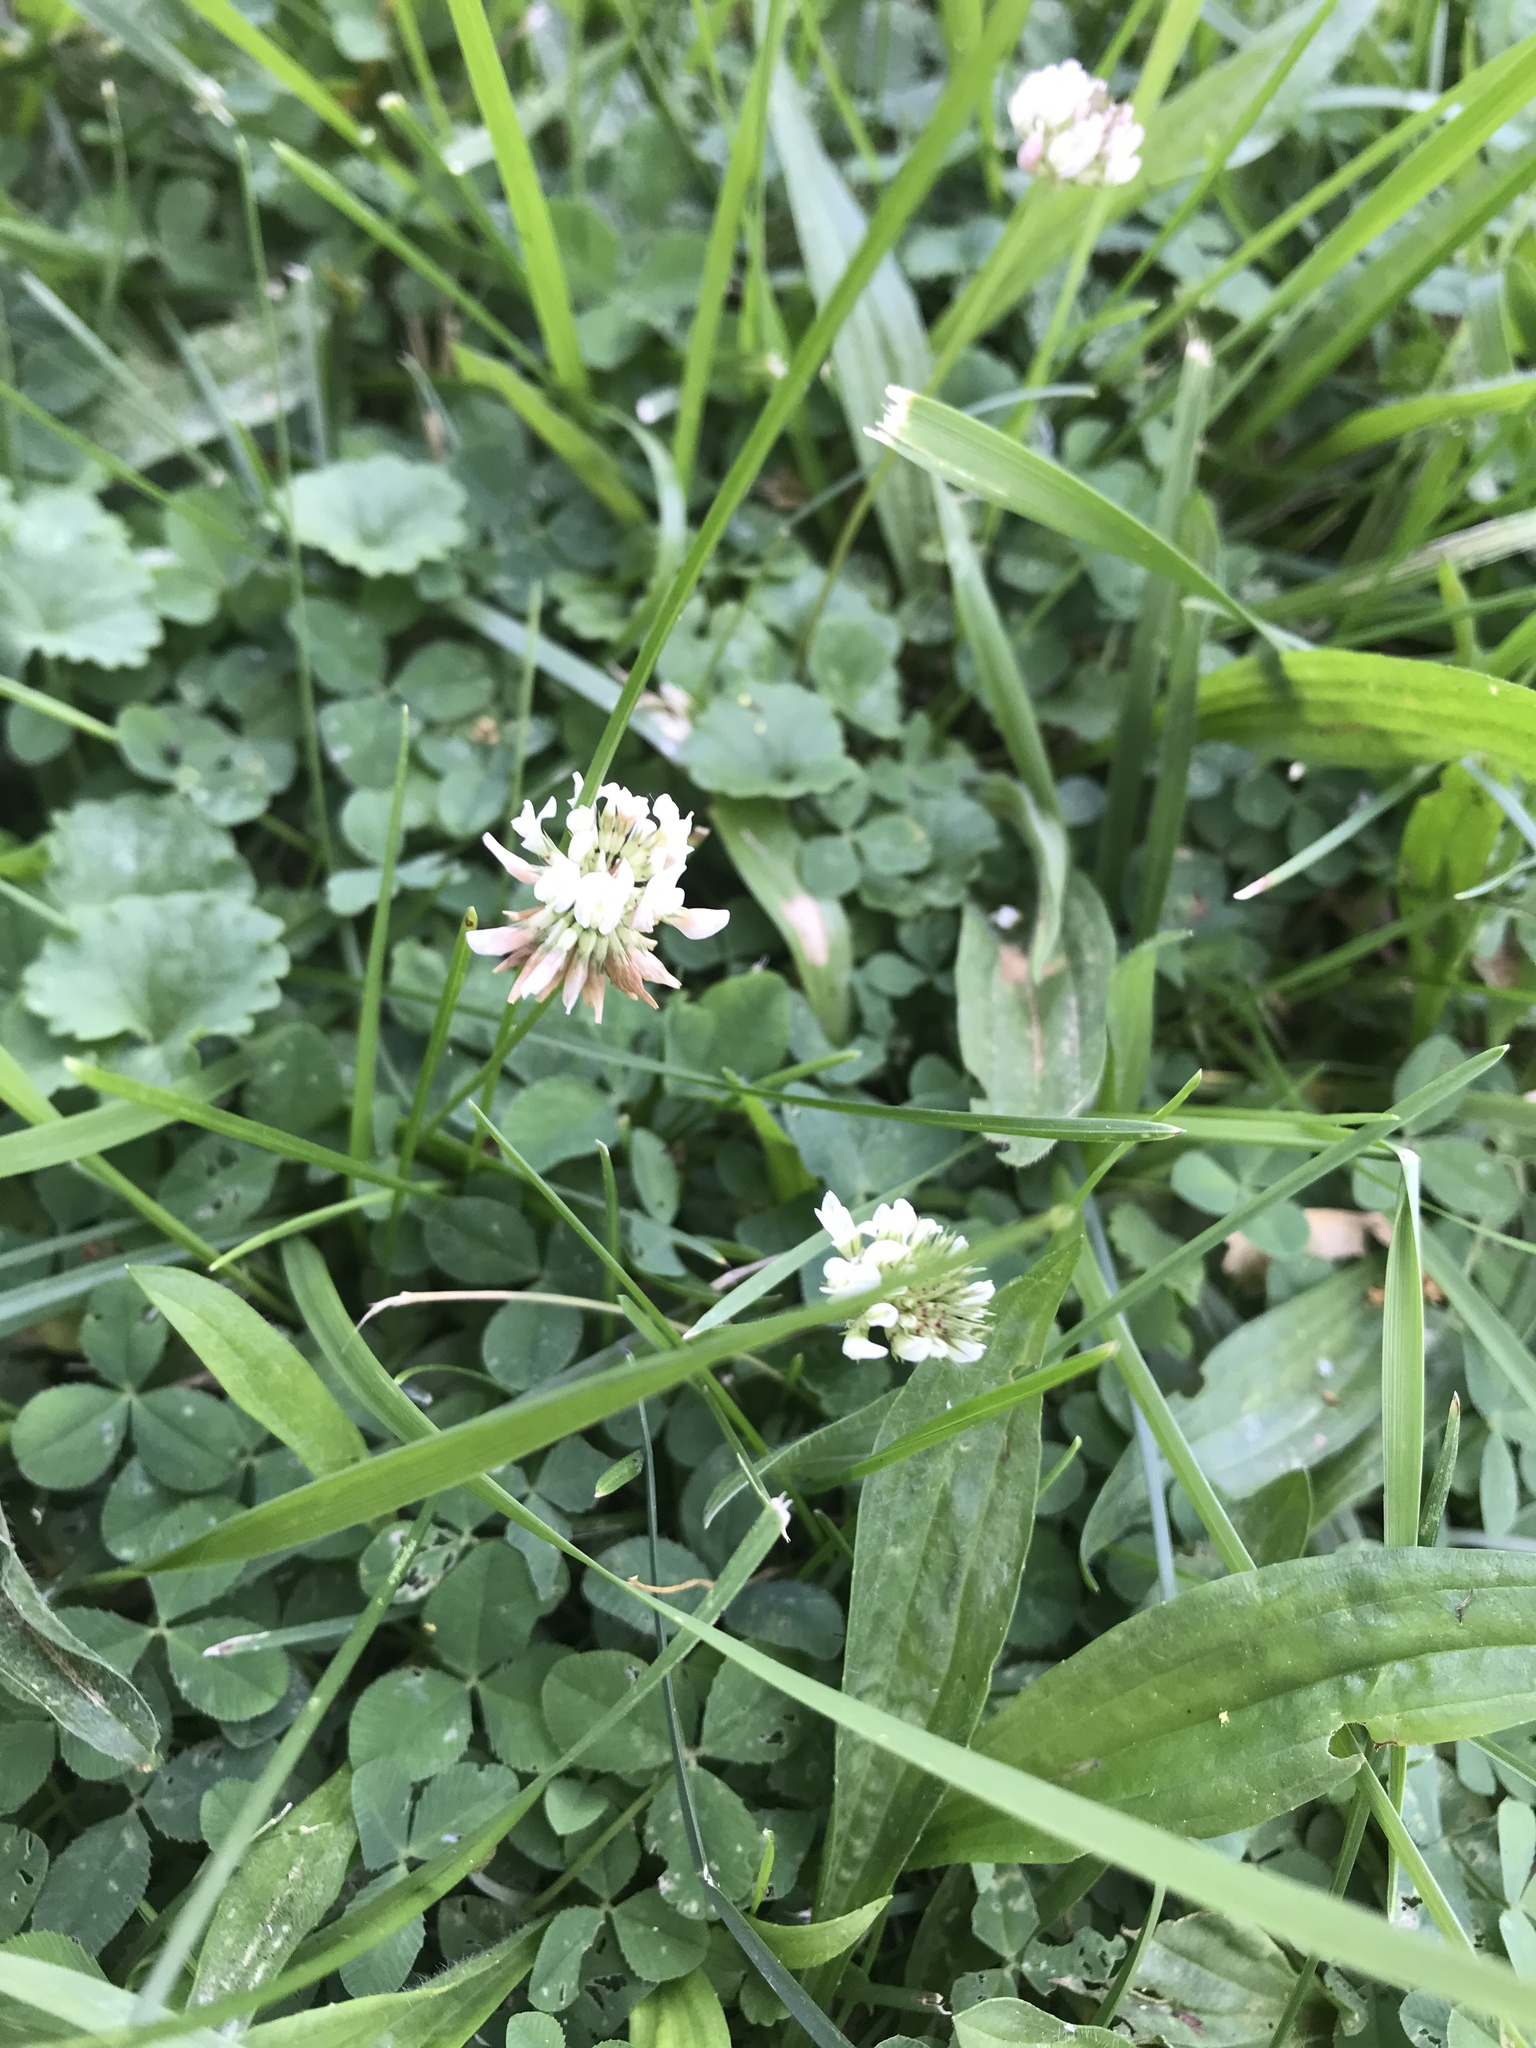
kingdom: Plantae
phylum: Tracheophyta
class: Magnoliopsida
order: Fabales
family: Fabaceae
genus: Trifolium
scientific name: Trifolium repens
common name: White clover
